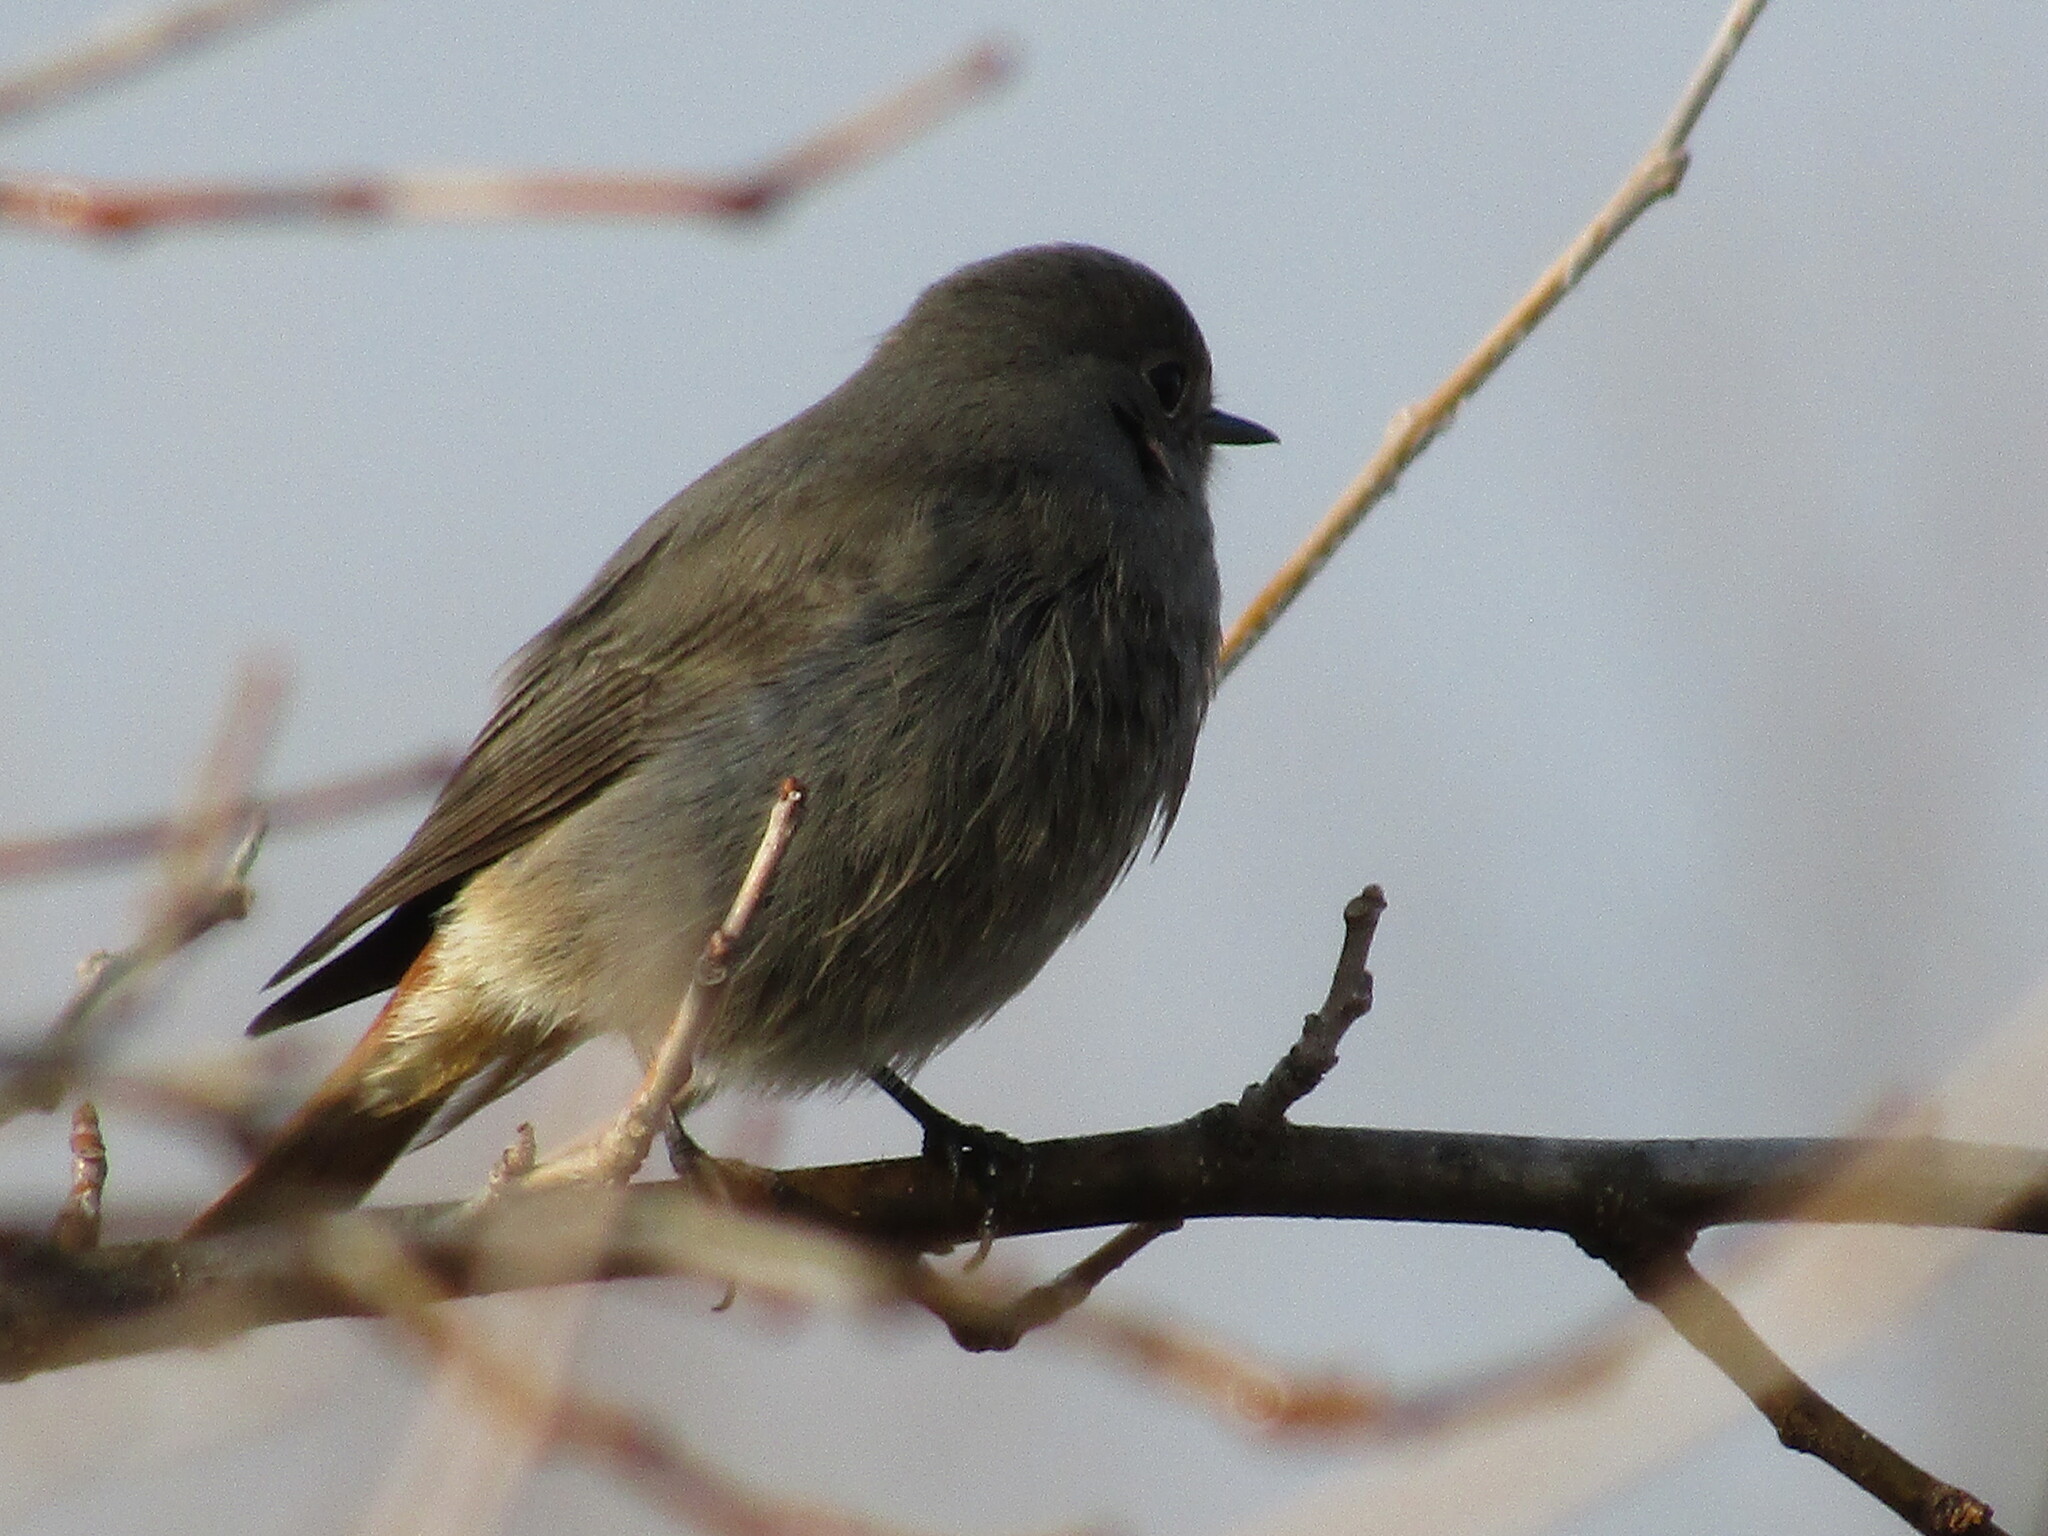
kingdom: Animalia
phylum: Chordata
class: Aves
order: Passeriformes
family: Muscicapidae
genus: Phoenicurus
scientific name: Phoenicurus ochruros
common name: Black redstart
